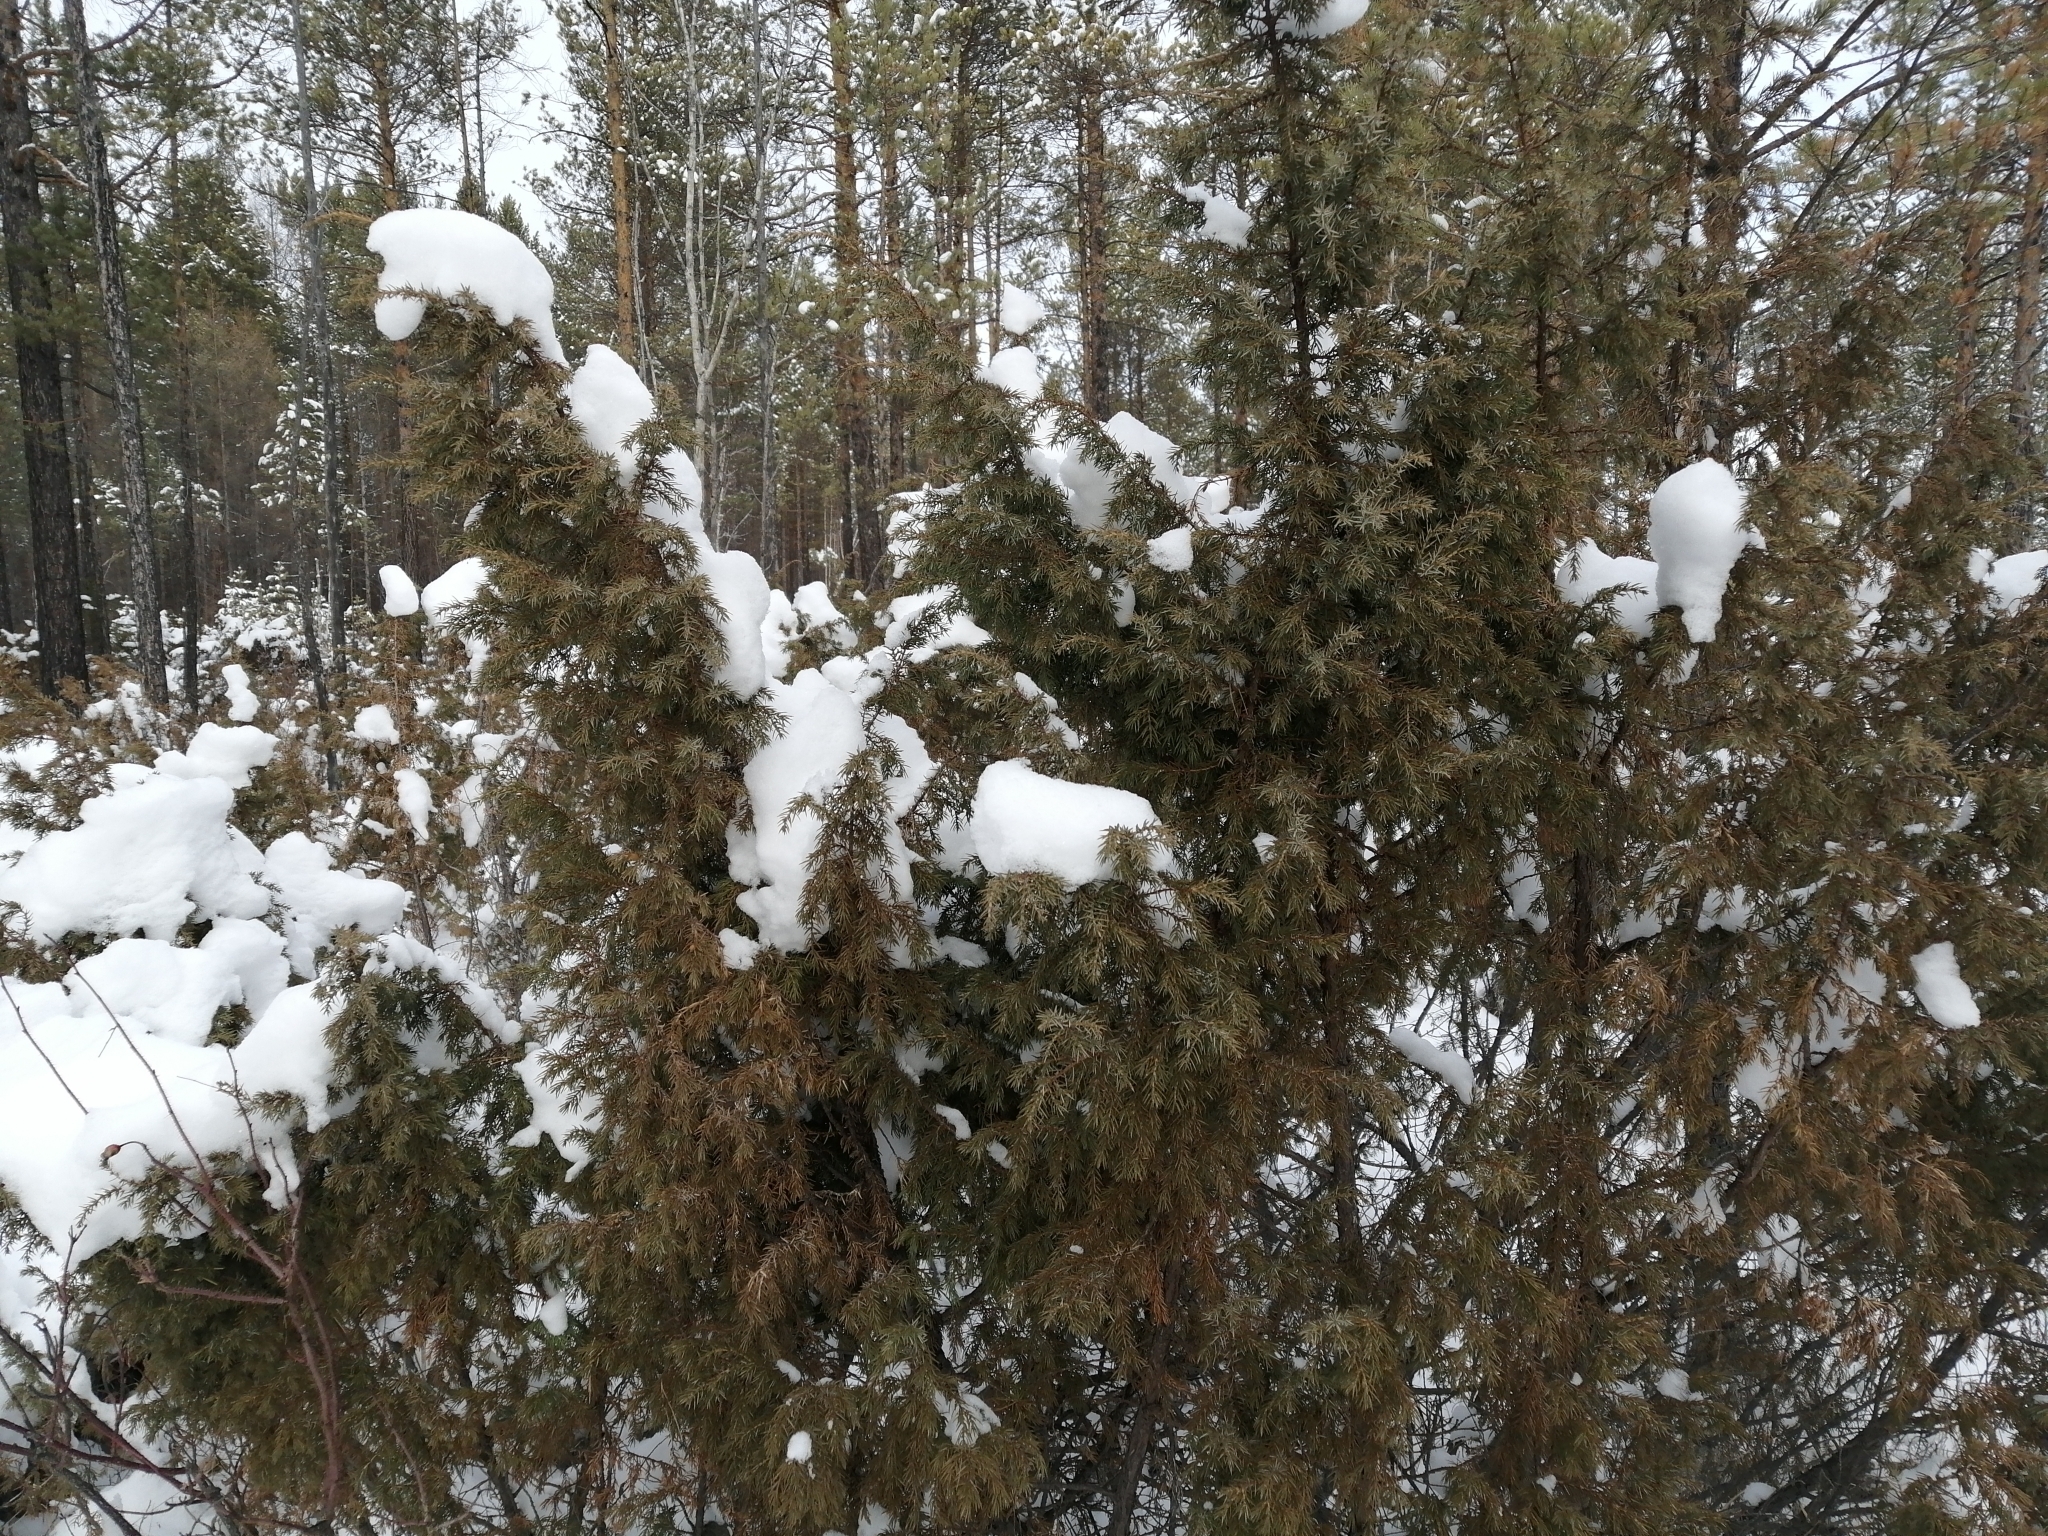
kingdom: Plantae
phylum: Tracheophyta
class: Pinopsida
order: Pinales
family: Cupressaceae
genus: Juniperus
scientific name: Juniperus communis
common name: Common juniper
